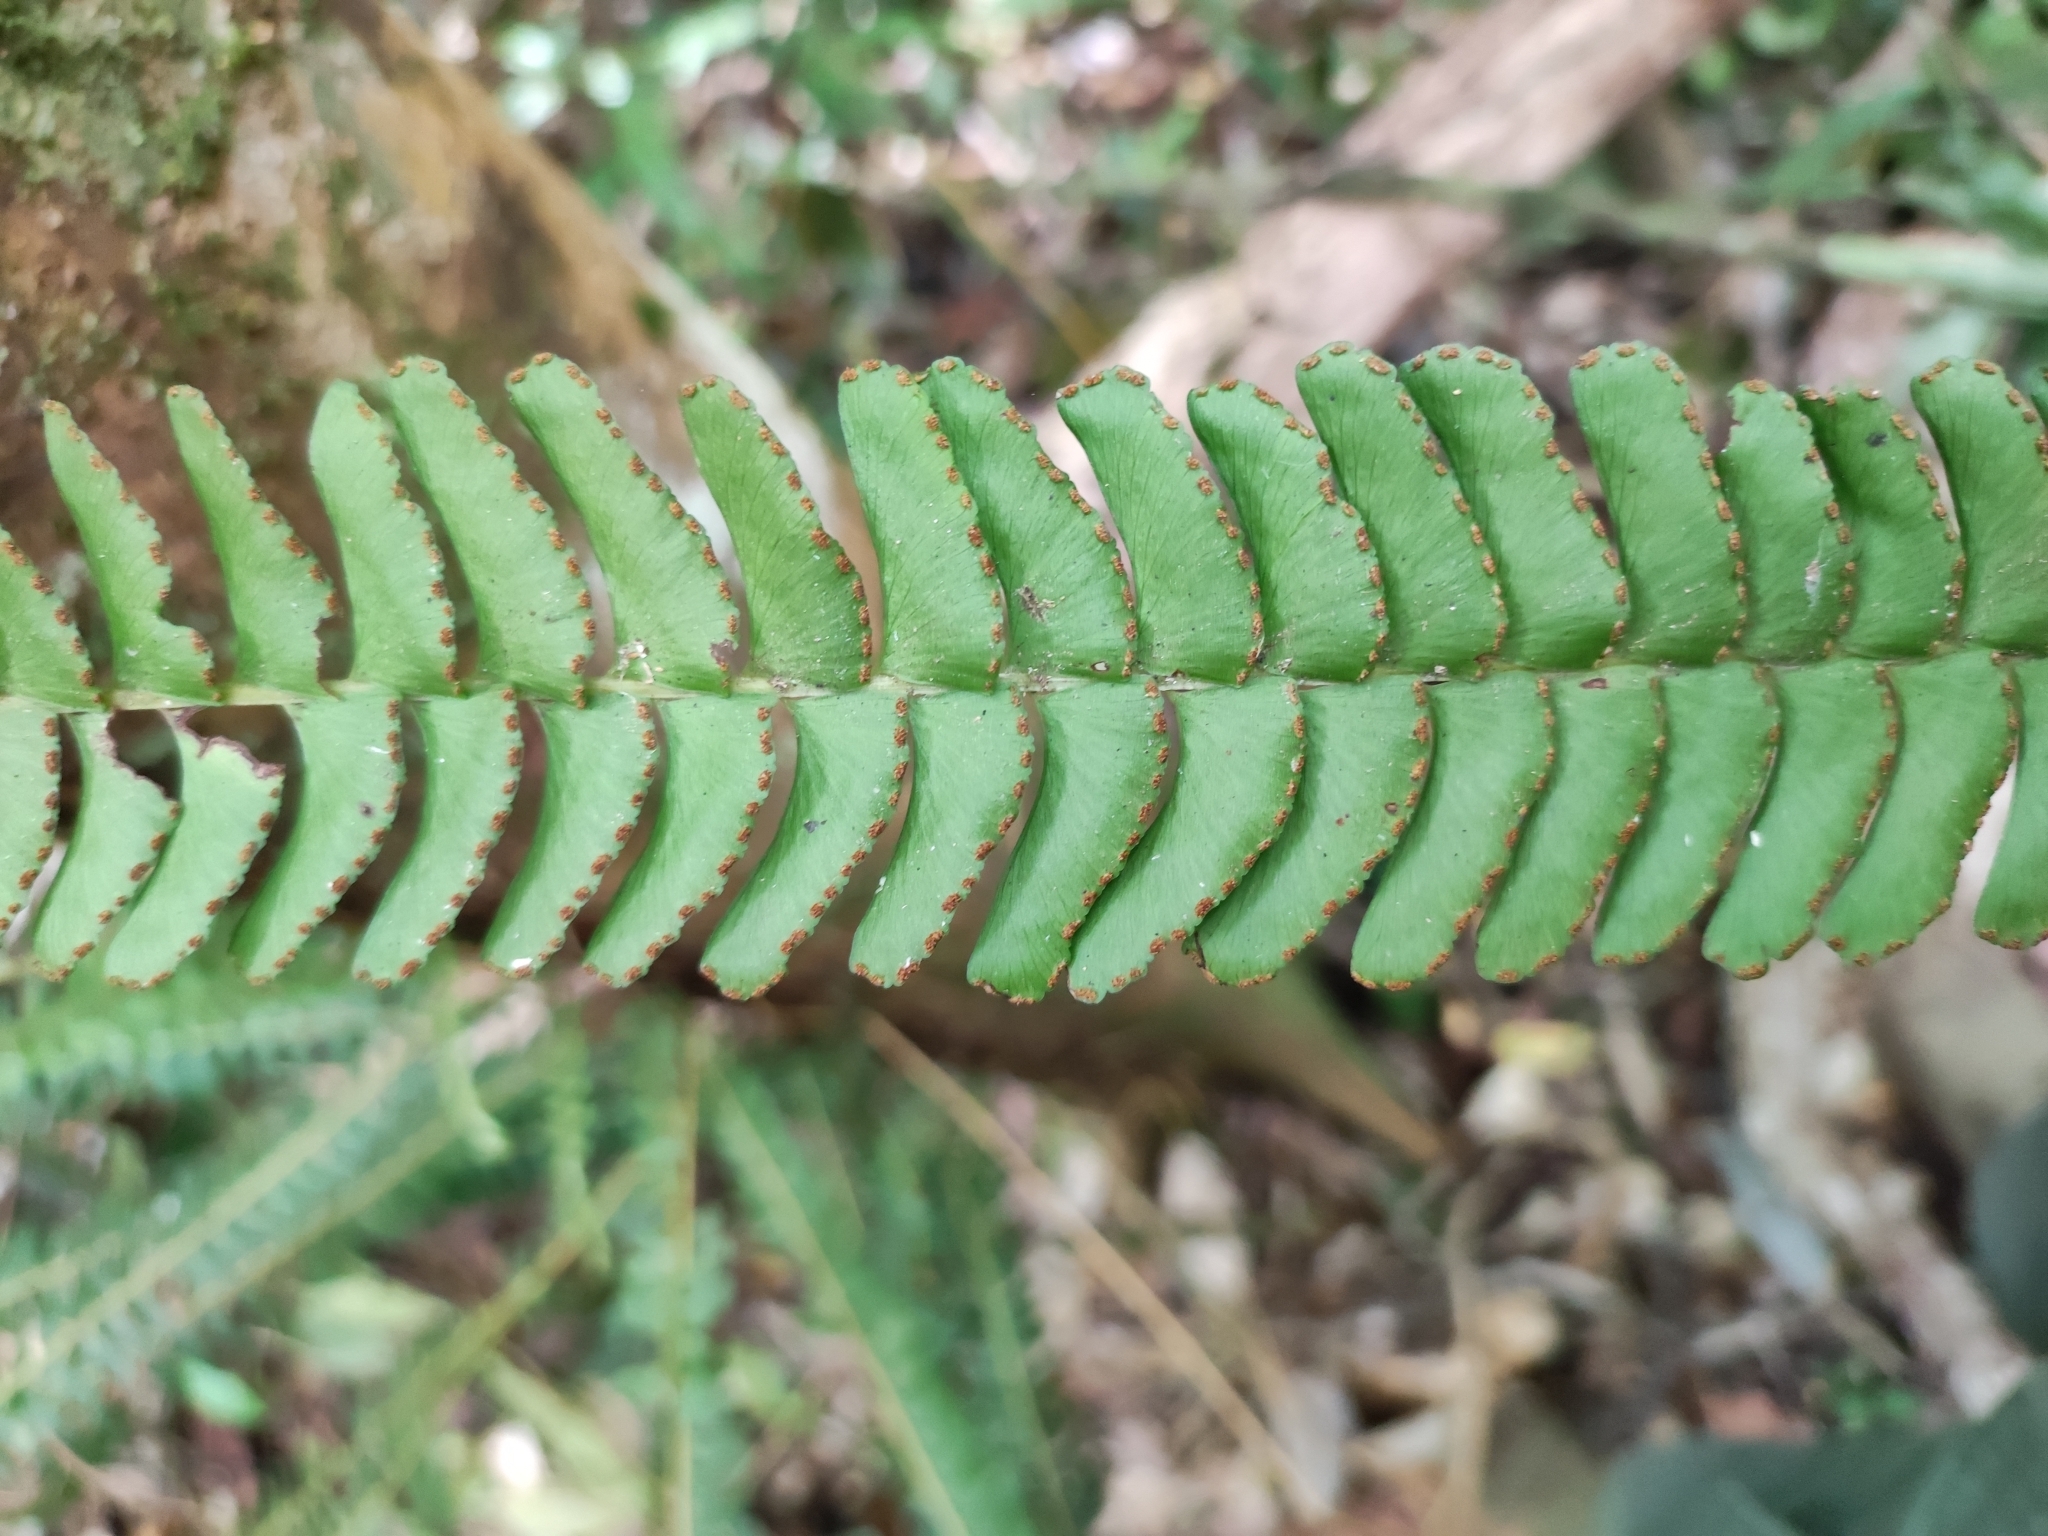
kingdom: Plantae
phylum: Tracheophyta
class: Polypodiopsida
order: Polypodiales
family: Lindsaeaceae
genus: Lindsaea
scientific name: Lindsaea pectinata
